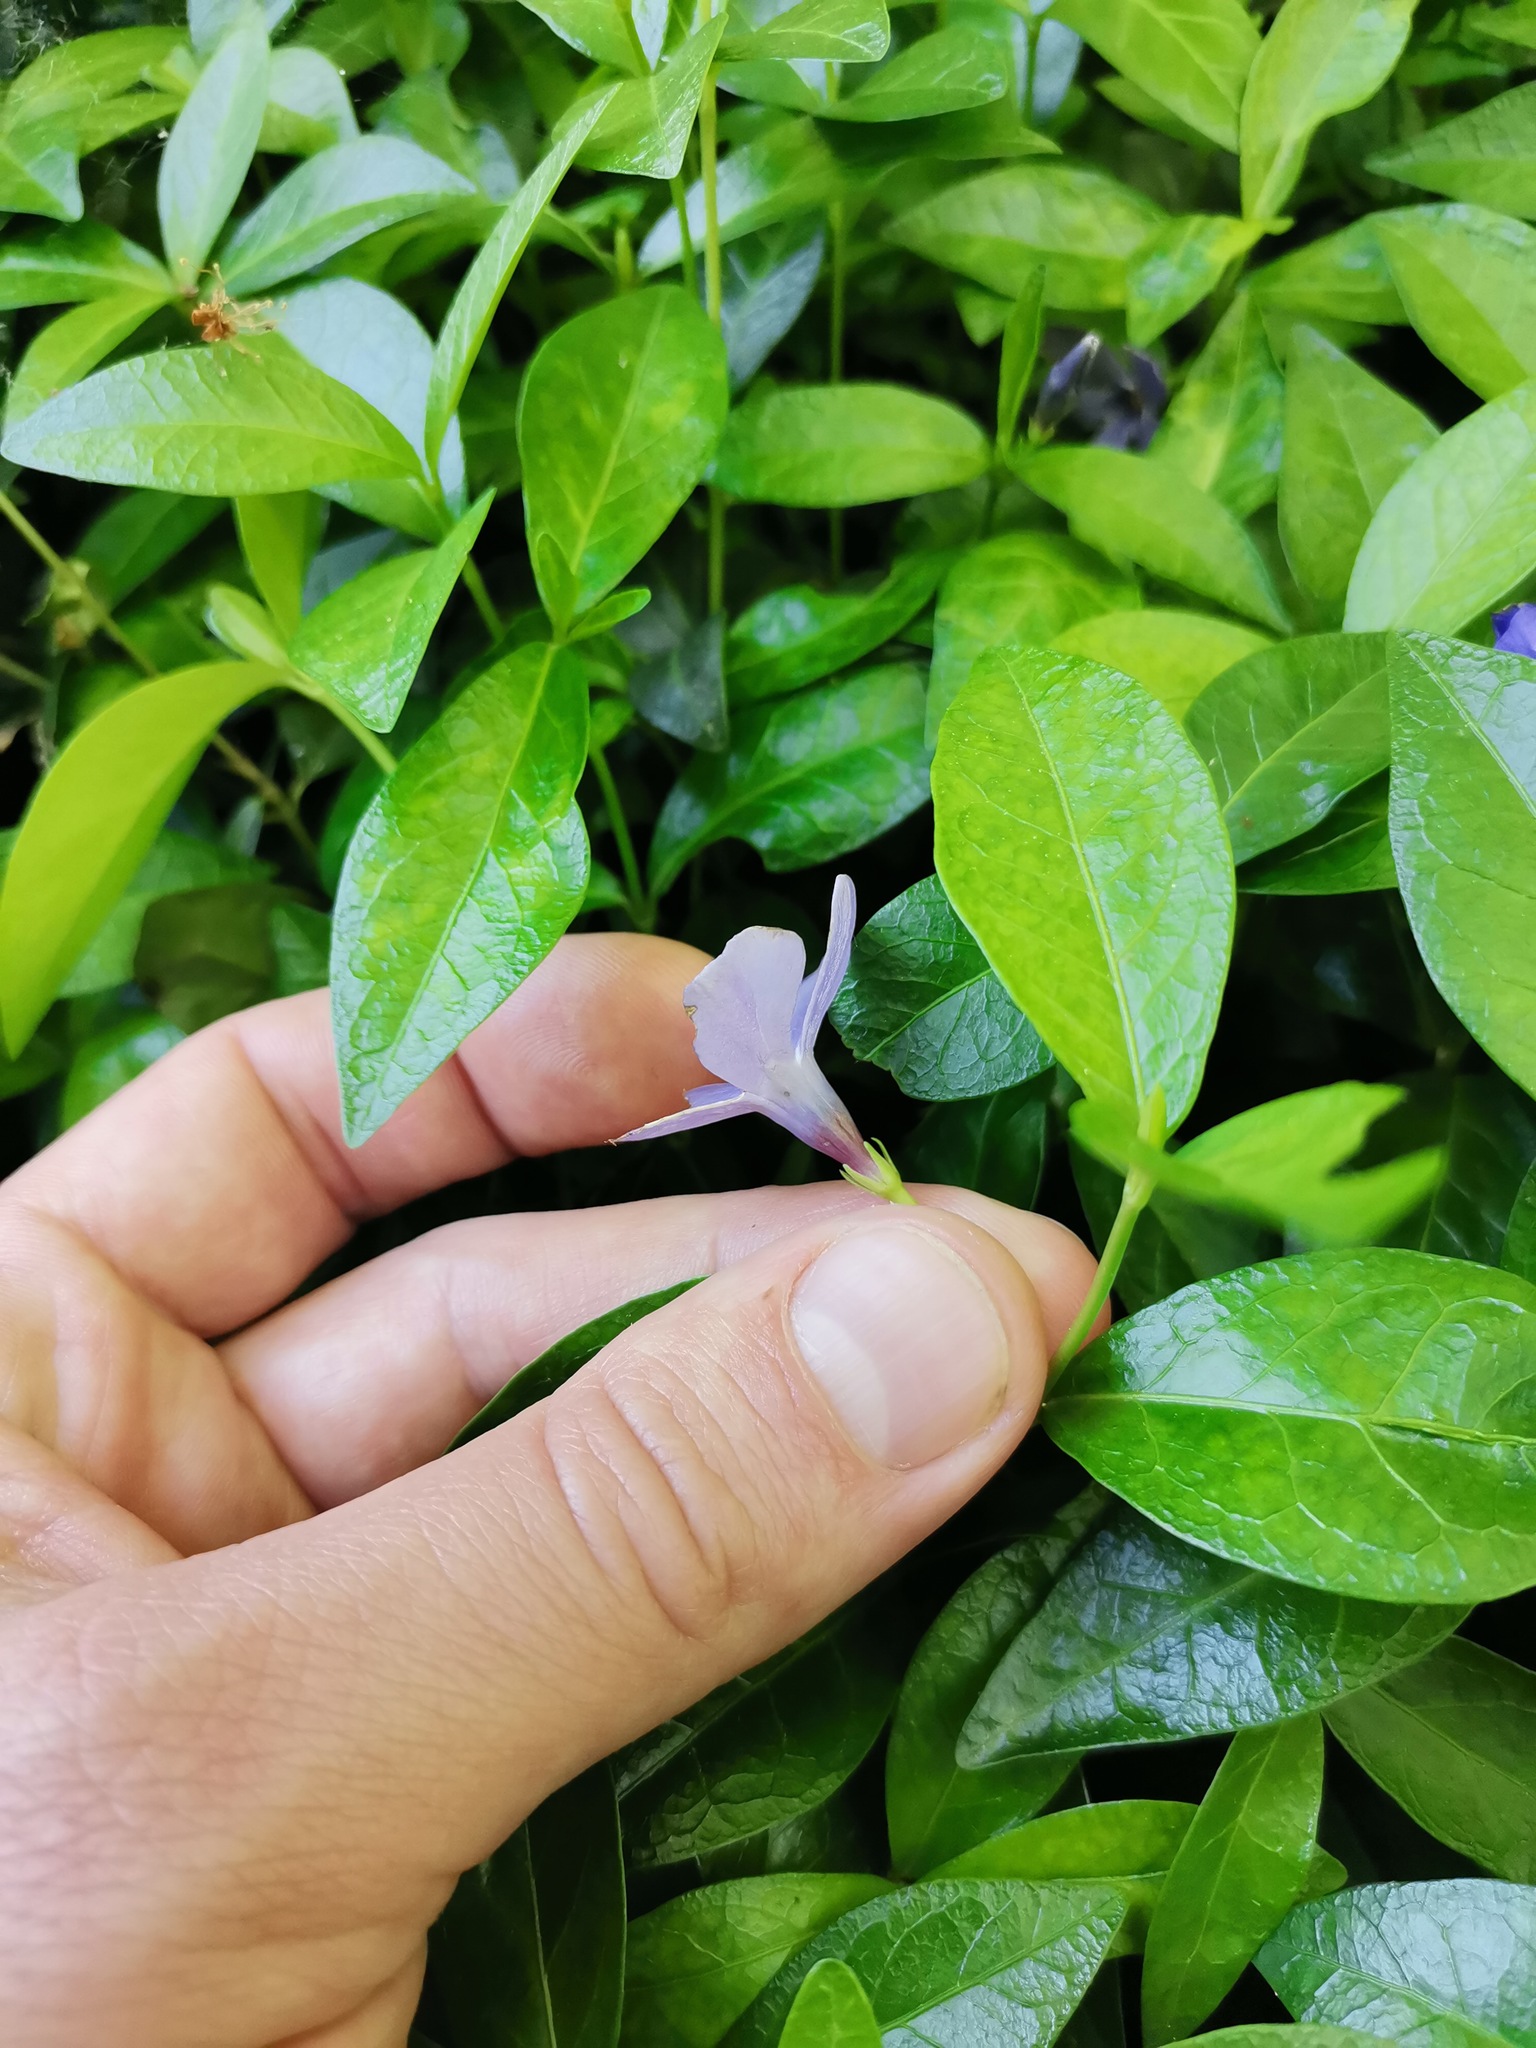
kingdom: Plantae
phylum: Tracheophyta
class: Magnoliopsida
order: Gentianales
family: Apocynaceae
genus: Vinca
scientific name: Vinca minor
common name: Lesser periwinkle
